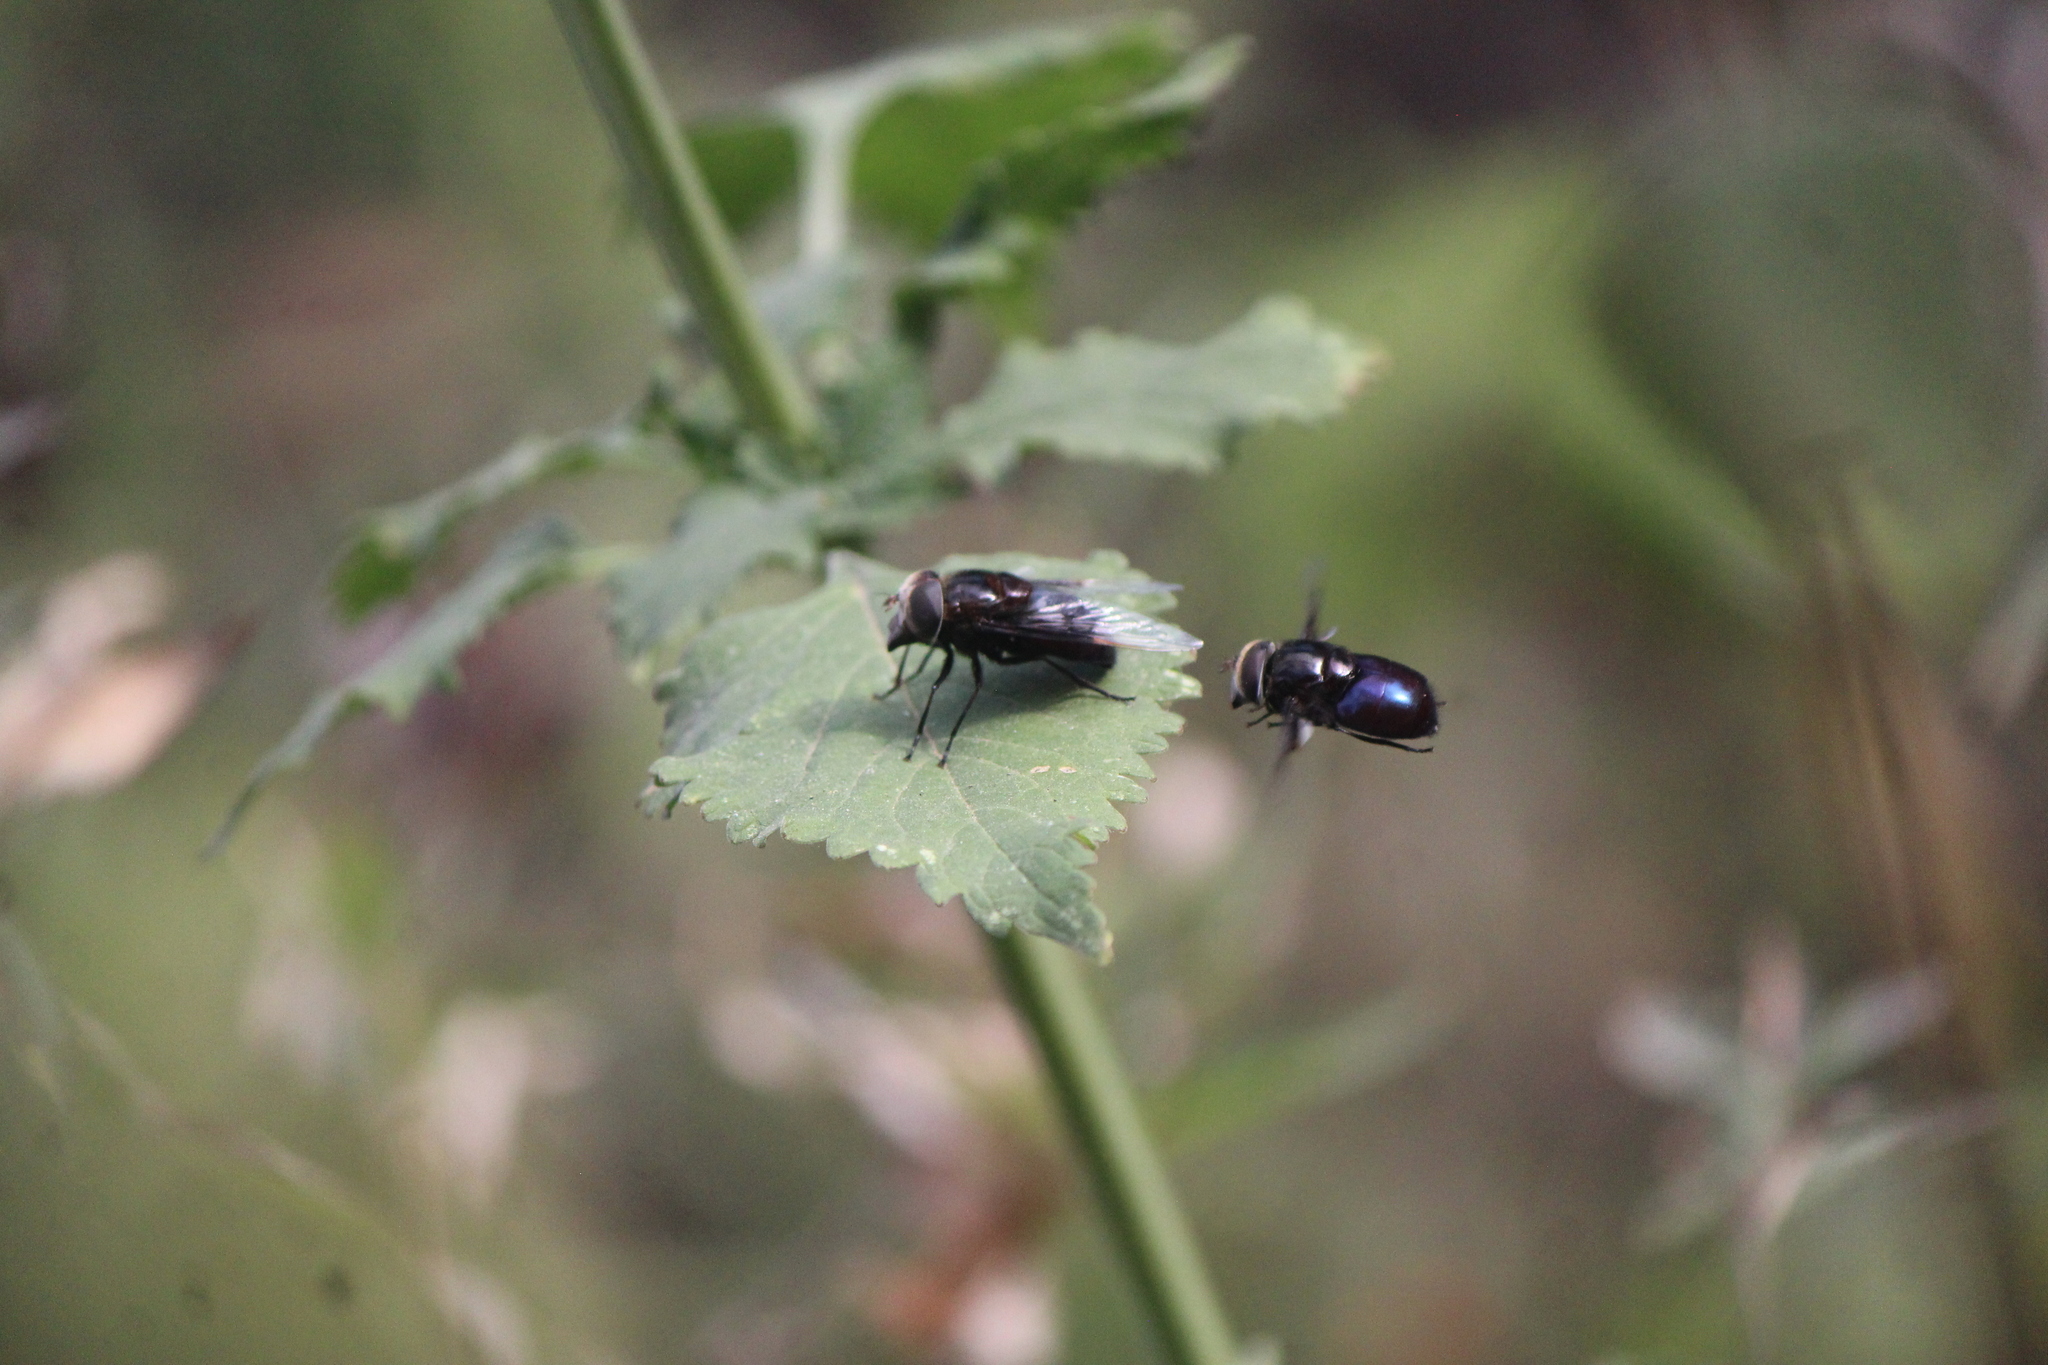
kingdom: Animalia
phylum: Arthropoda
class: Insecta
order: Diptera
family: Syrphidae
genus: Copestylum
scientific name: Copestylum violaceum
